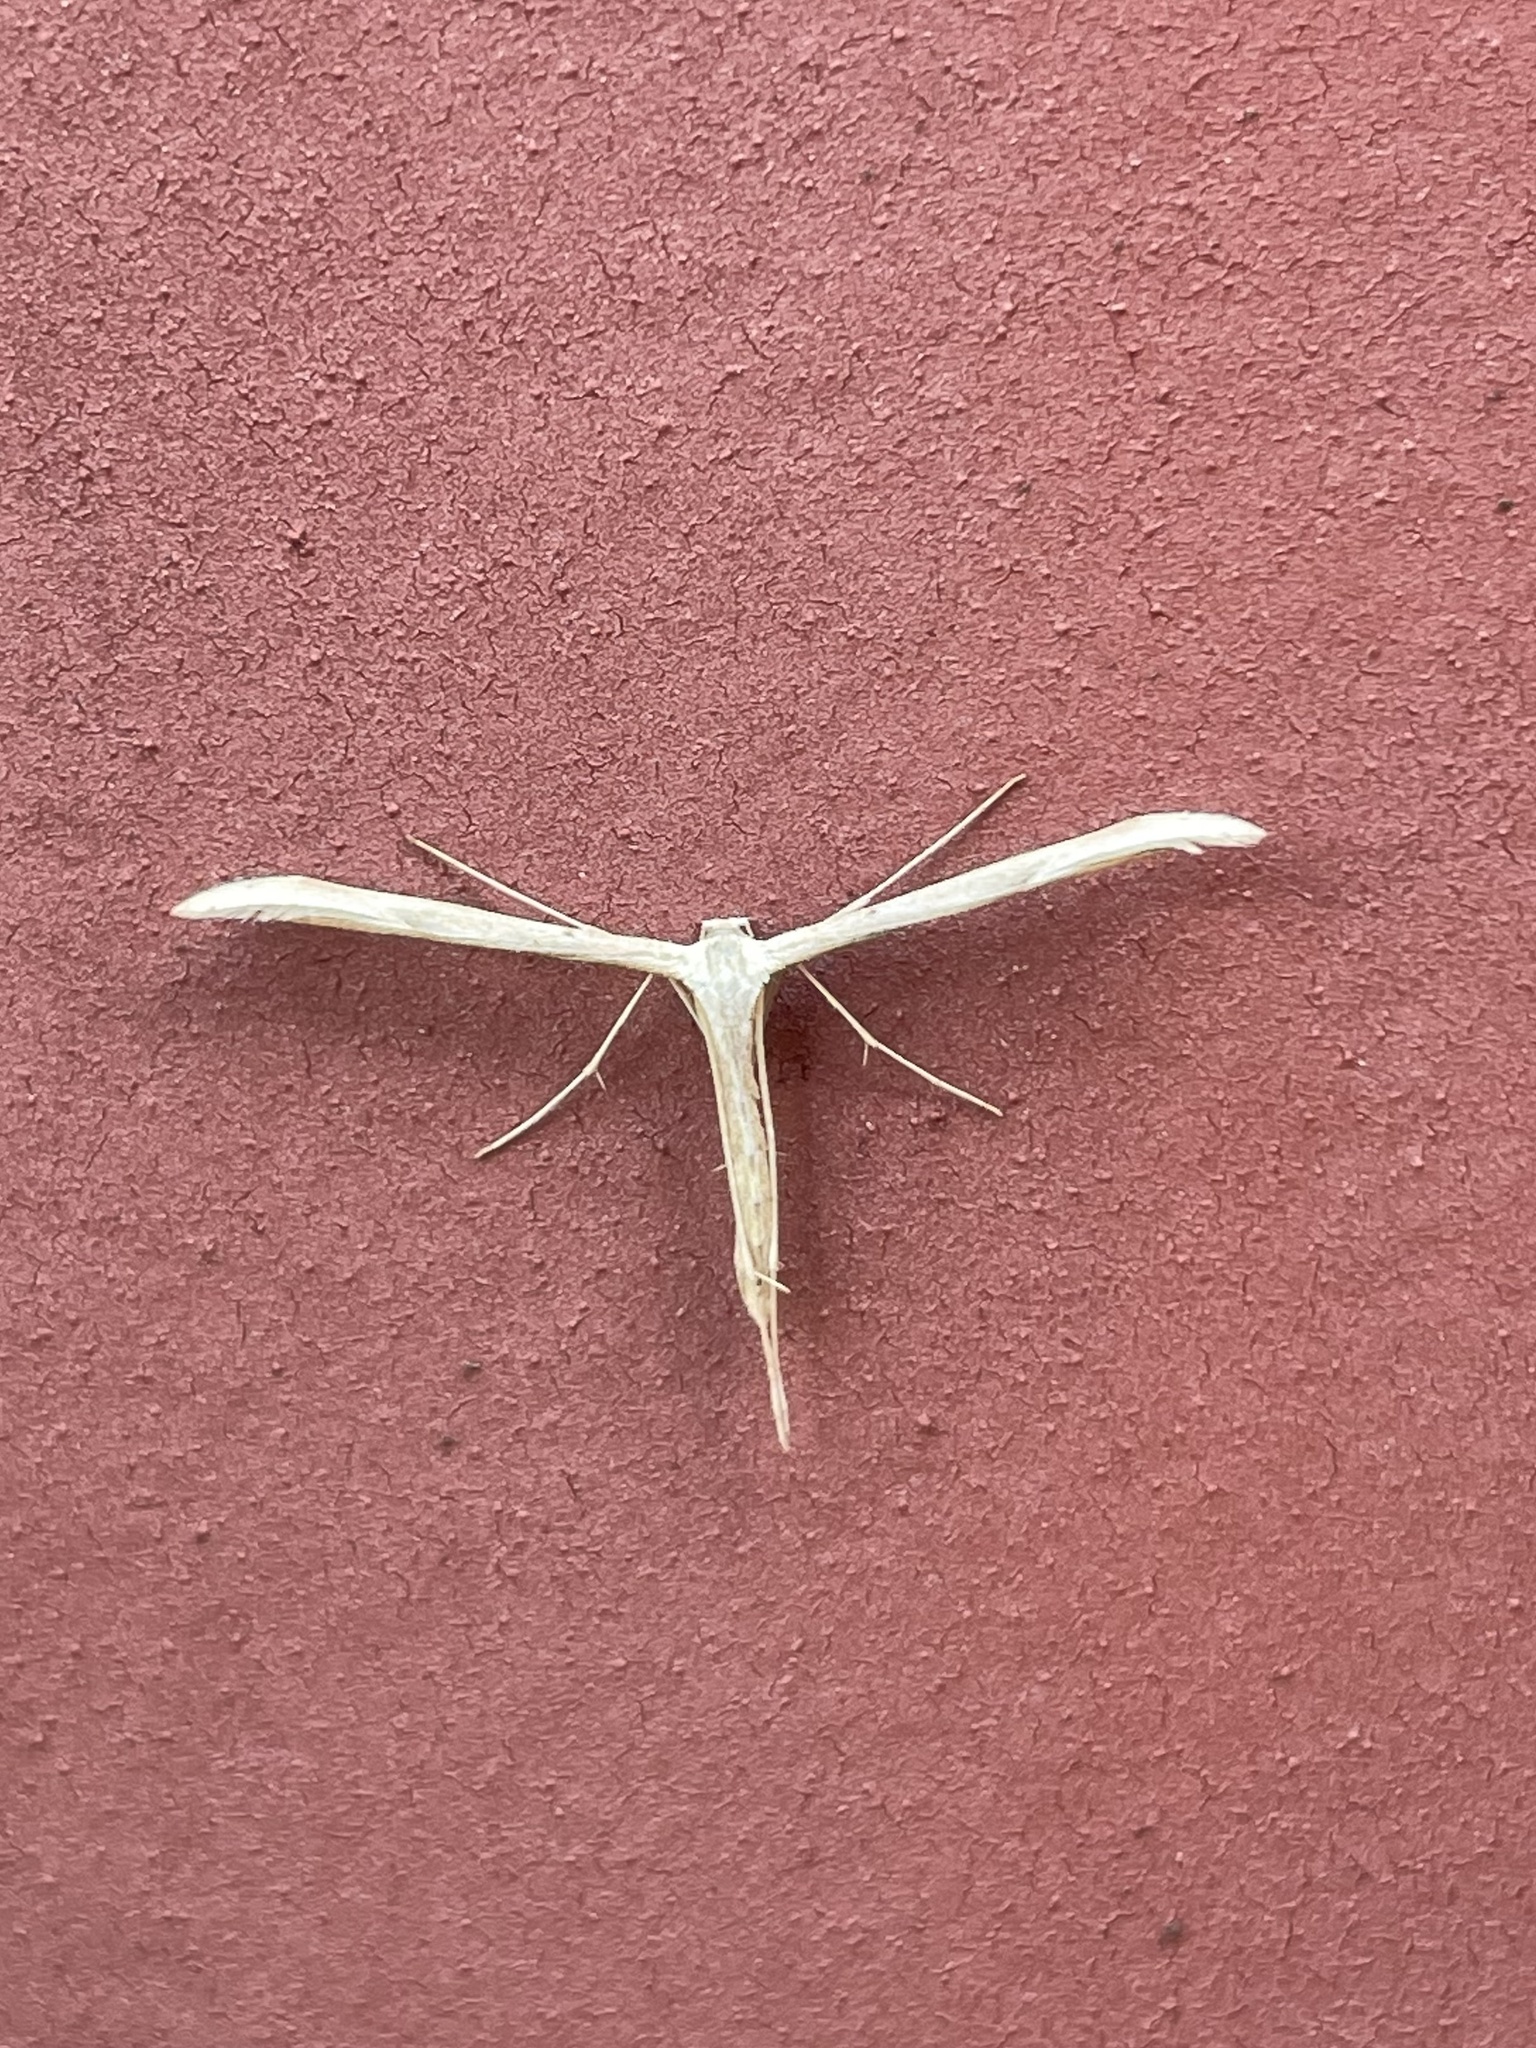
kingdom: Animalia
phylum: Arthropoda
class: Insecta
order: Lepidoptera
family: Pterophoridae
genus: Emmelina
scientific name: Emmelina monodactyla
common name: Common plume
